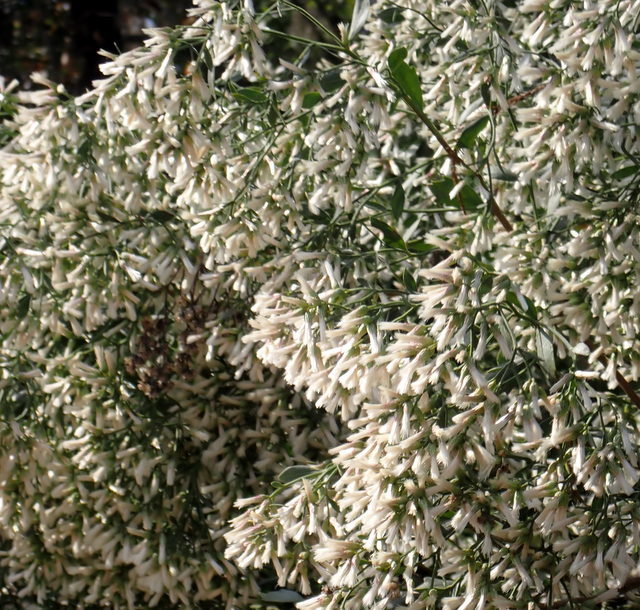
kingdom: Plantae
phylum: Tracheophyta
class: Magnoliopsida
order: Asterales
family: Asteraceae
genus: Baccharis
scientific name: Baccharis halimifolia
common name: Eastern baccharis
